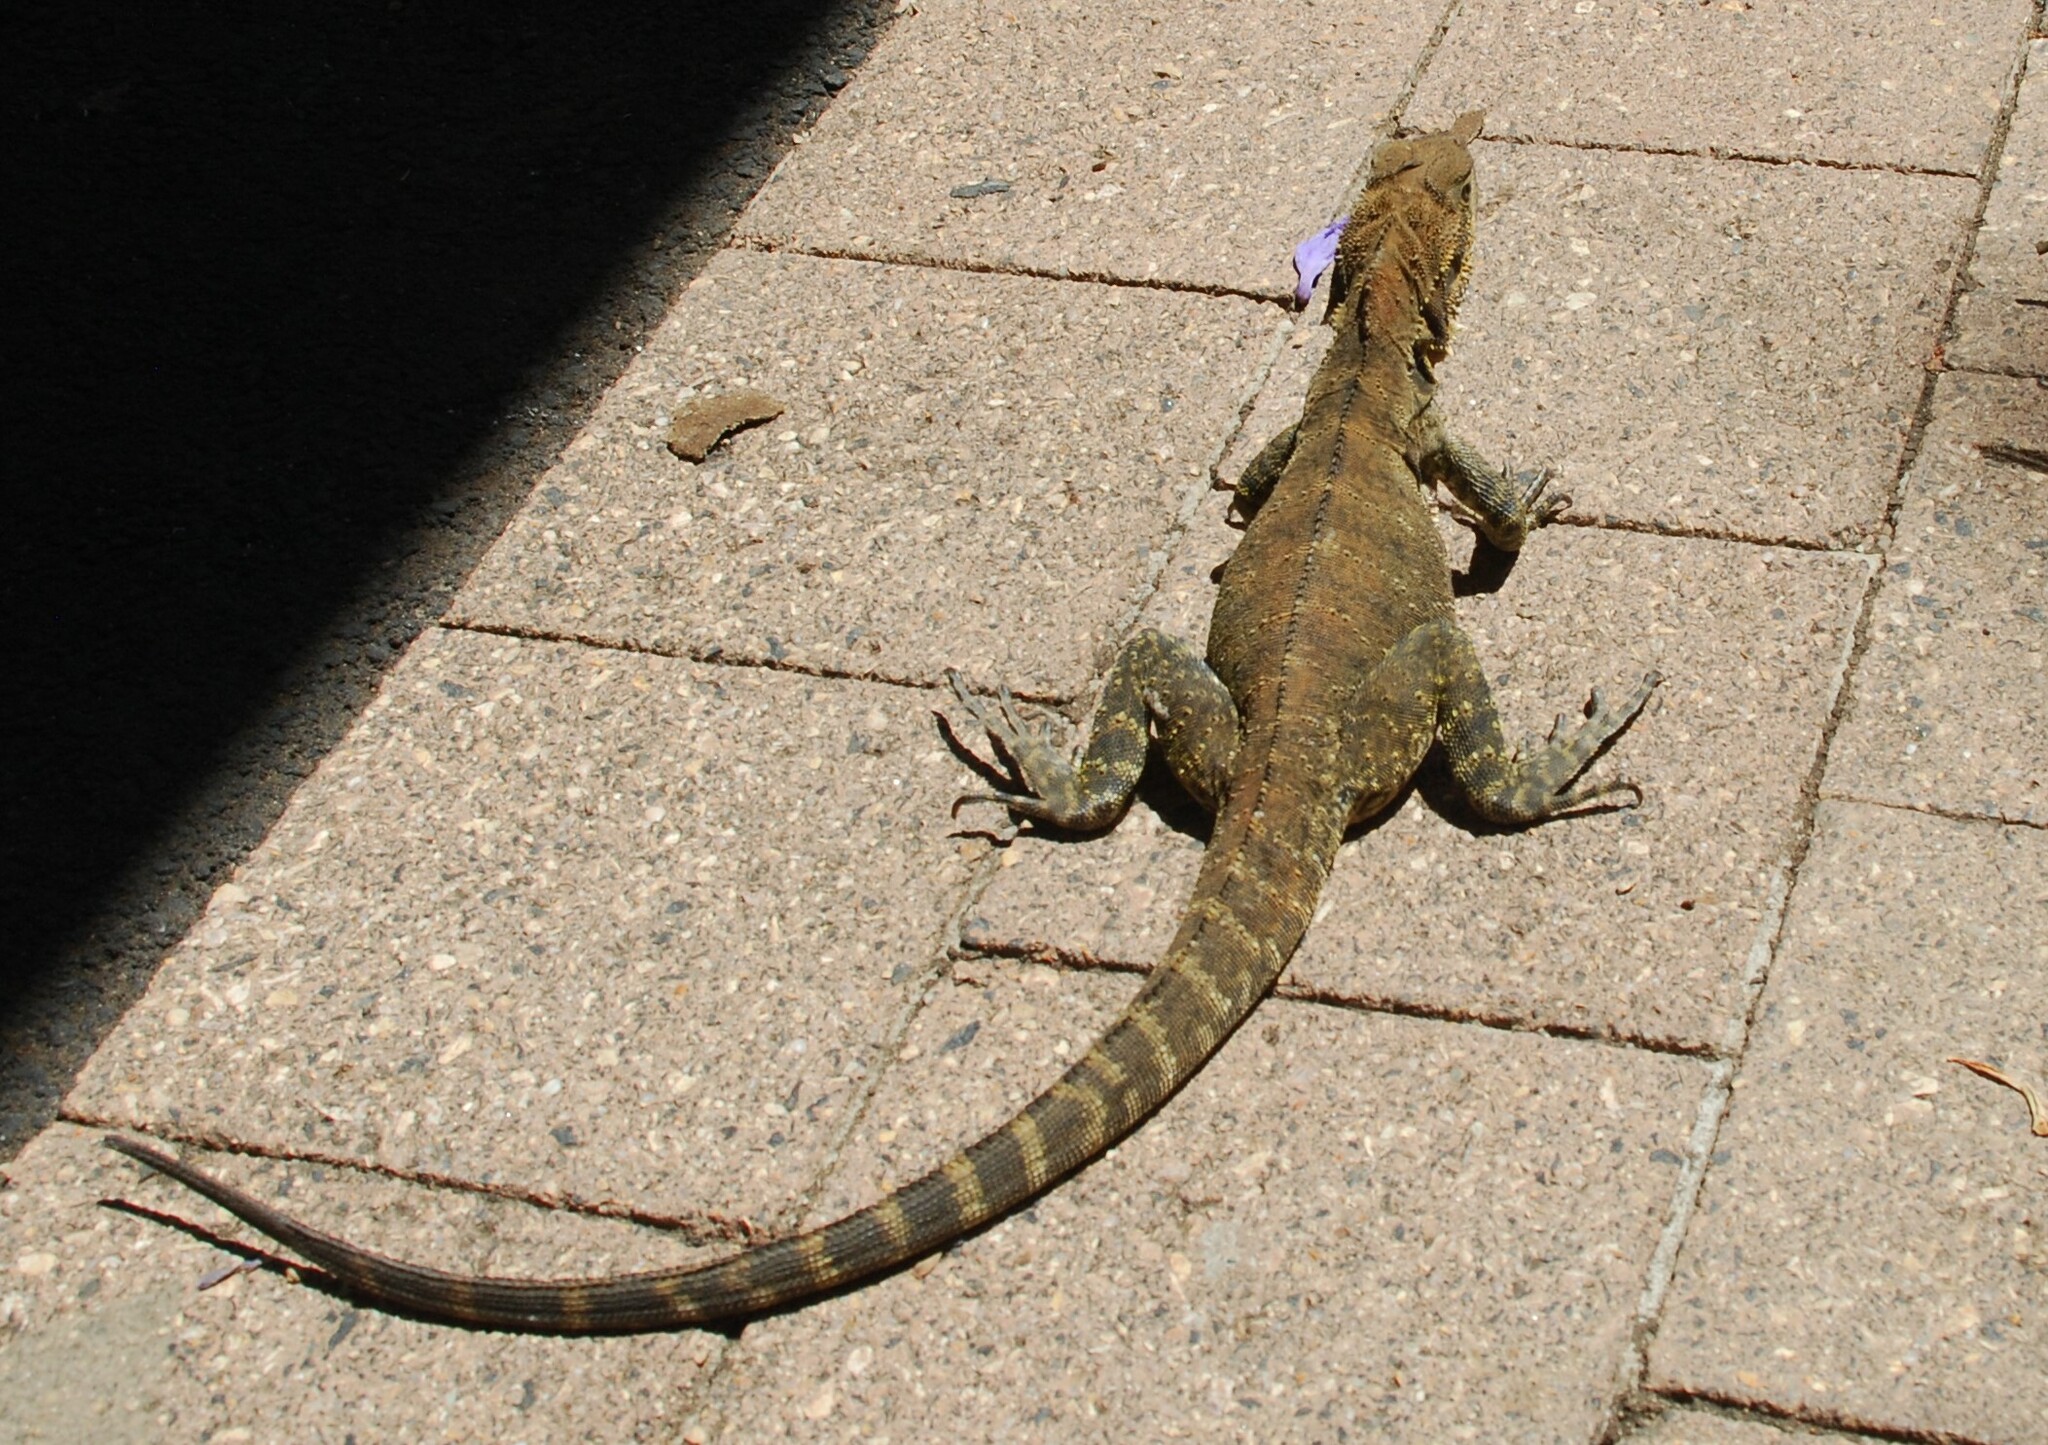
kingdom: Animalia
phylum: Chordata
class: Squamata
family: Agamidae
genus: Intellagama
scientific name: Intellagama lesueurii
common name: Eastern water dragon
